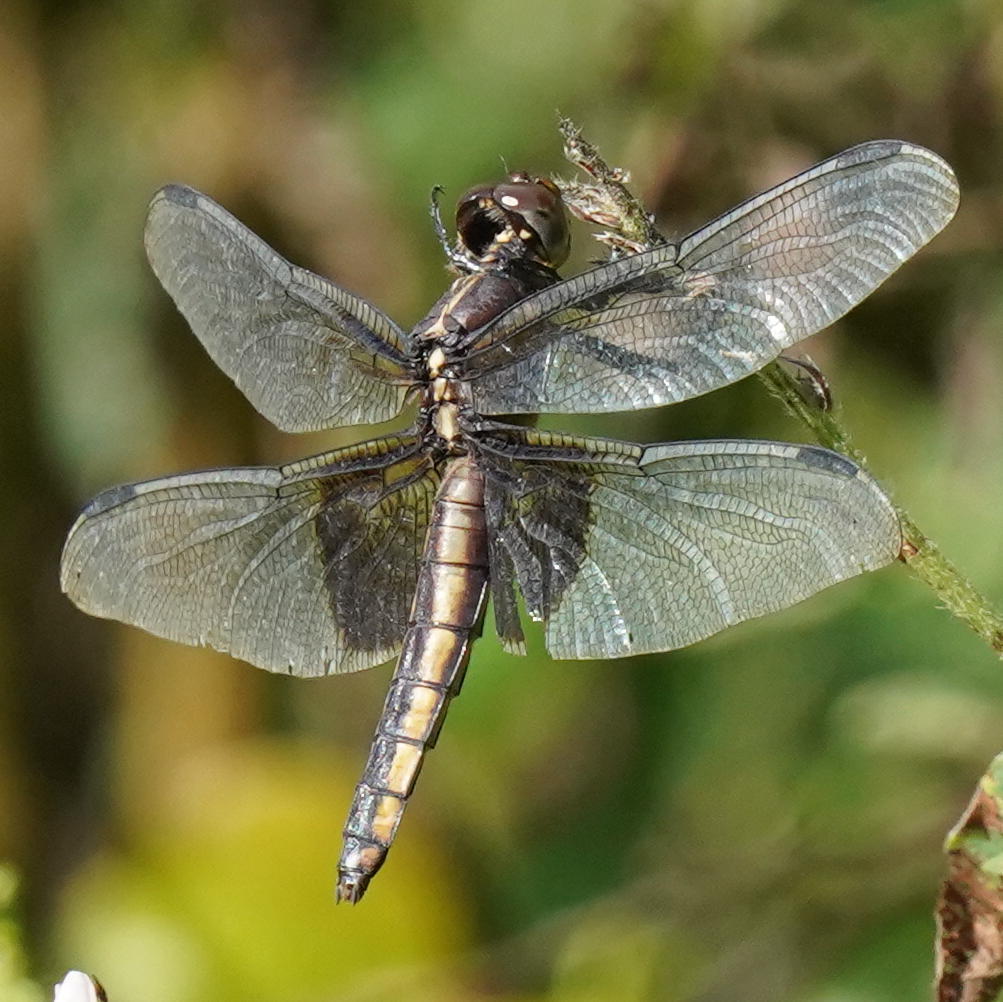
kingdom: Animalia
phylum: Arthropoda
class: Insecta
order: Odonata
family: Libellulidae
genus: Libellula
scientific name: Libellula luctuosa
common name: Widow skimmer
